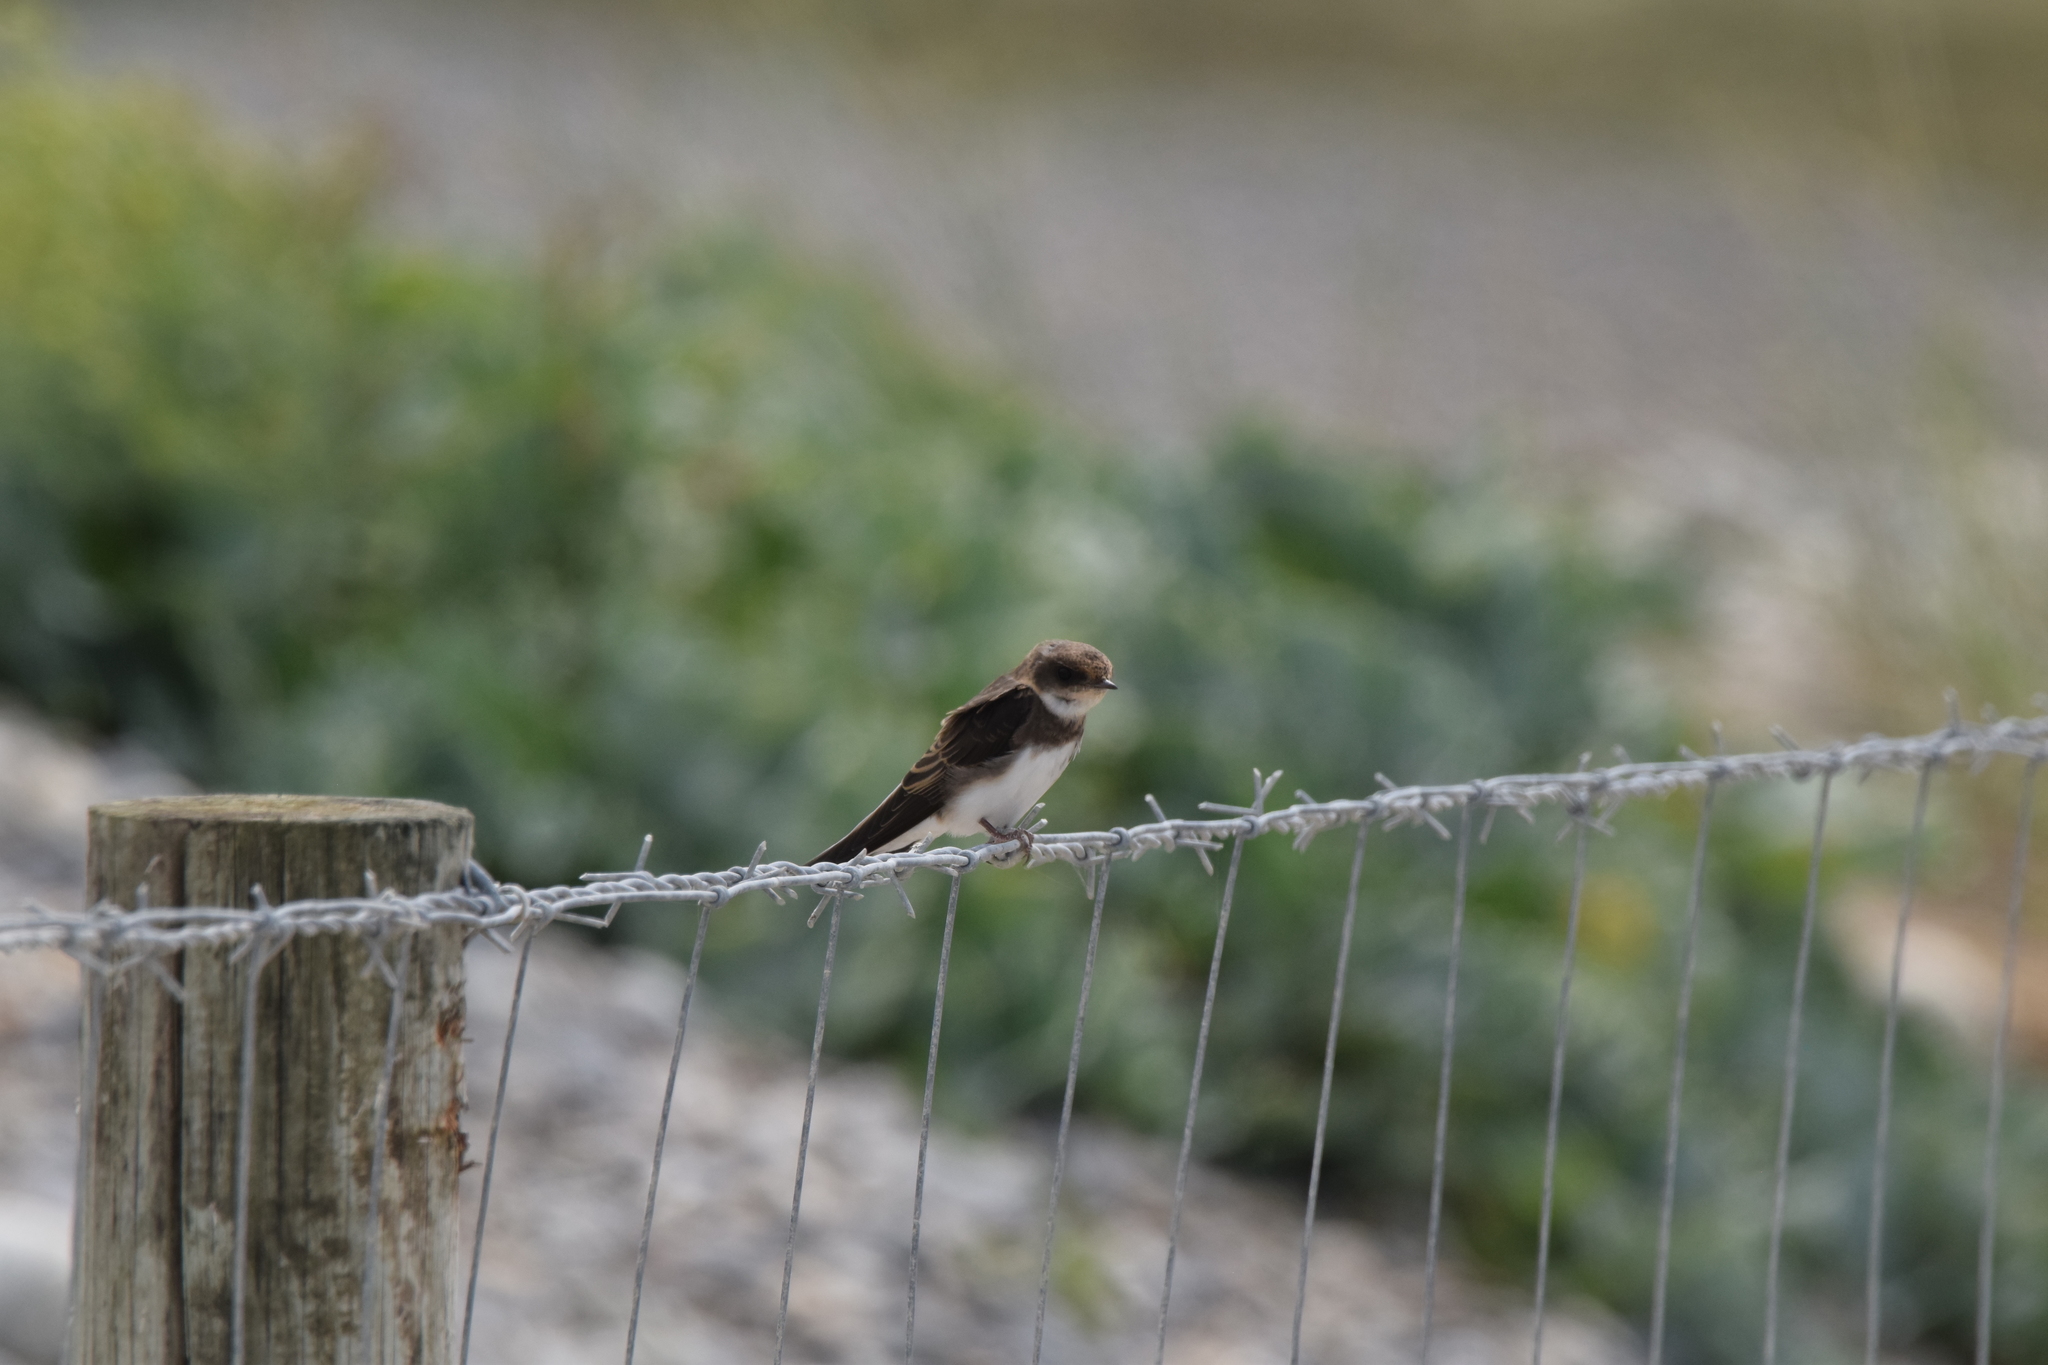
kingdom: Animalia
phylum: Chordata
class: Aves
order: Passeriformes
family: Hirundinidae
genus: Riparia
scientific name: Riparia riparia
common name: Sand martin
